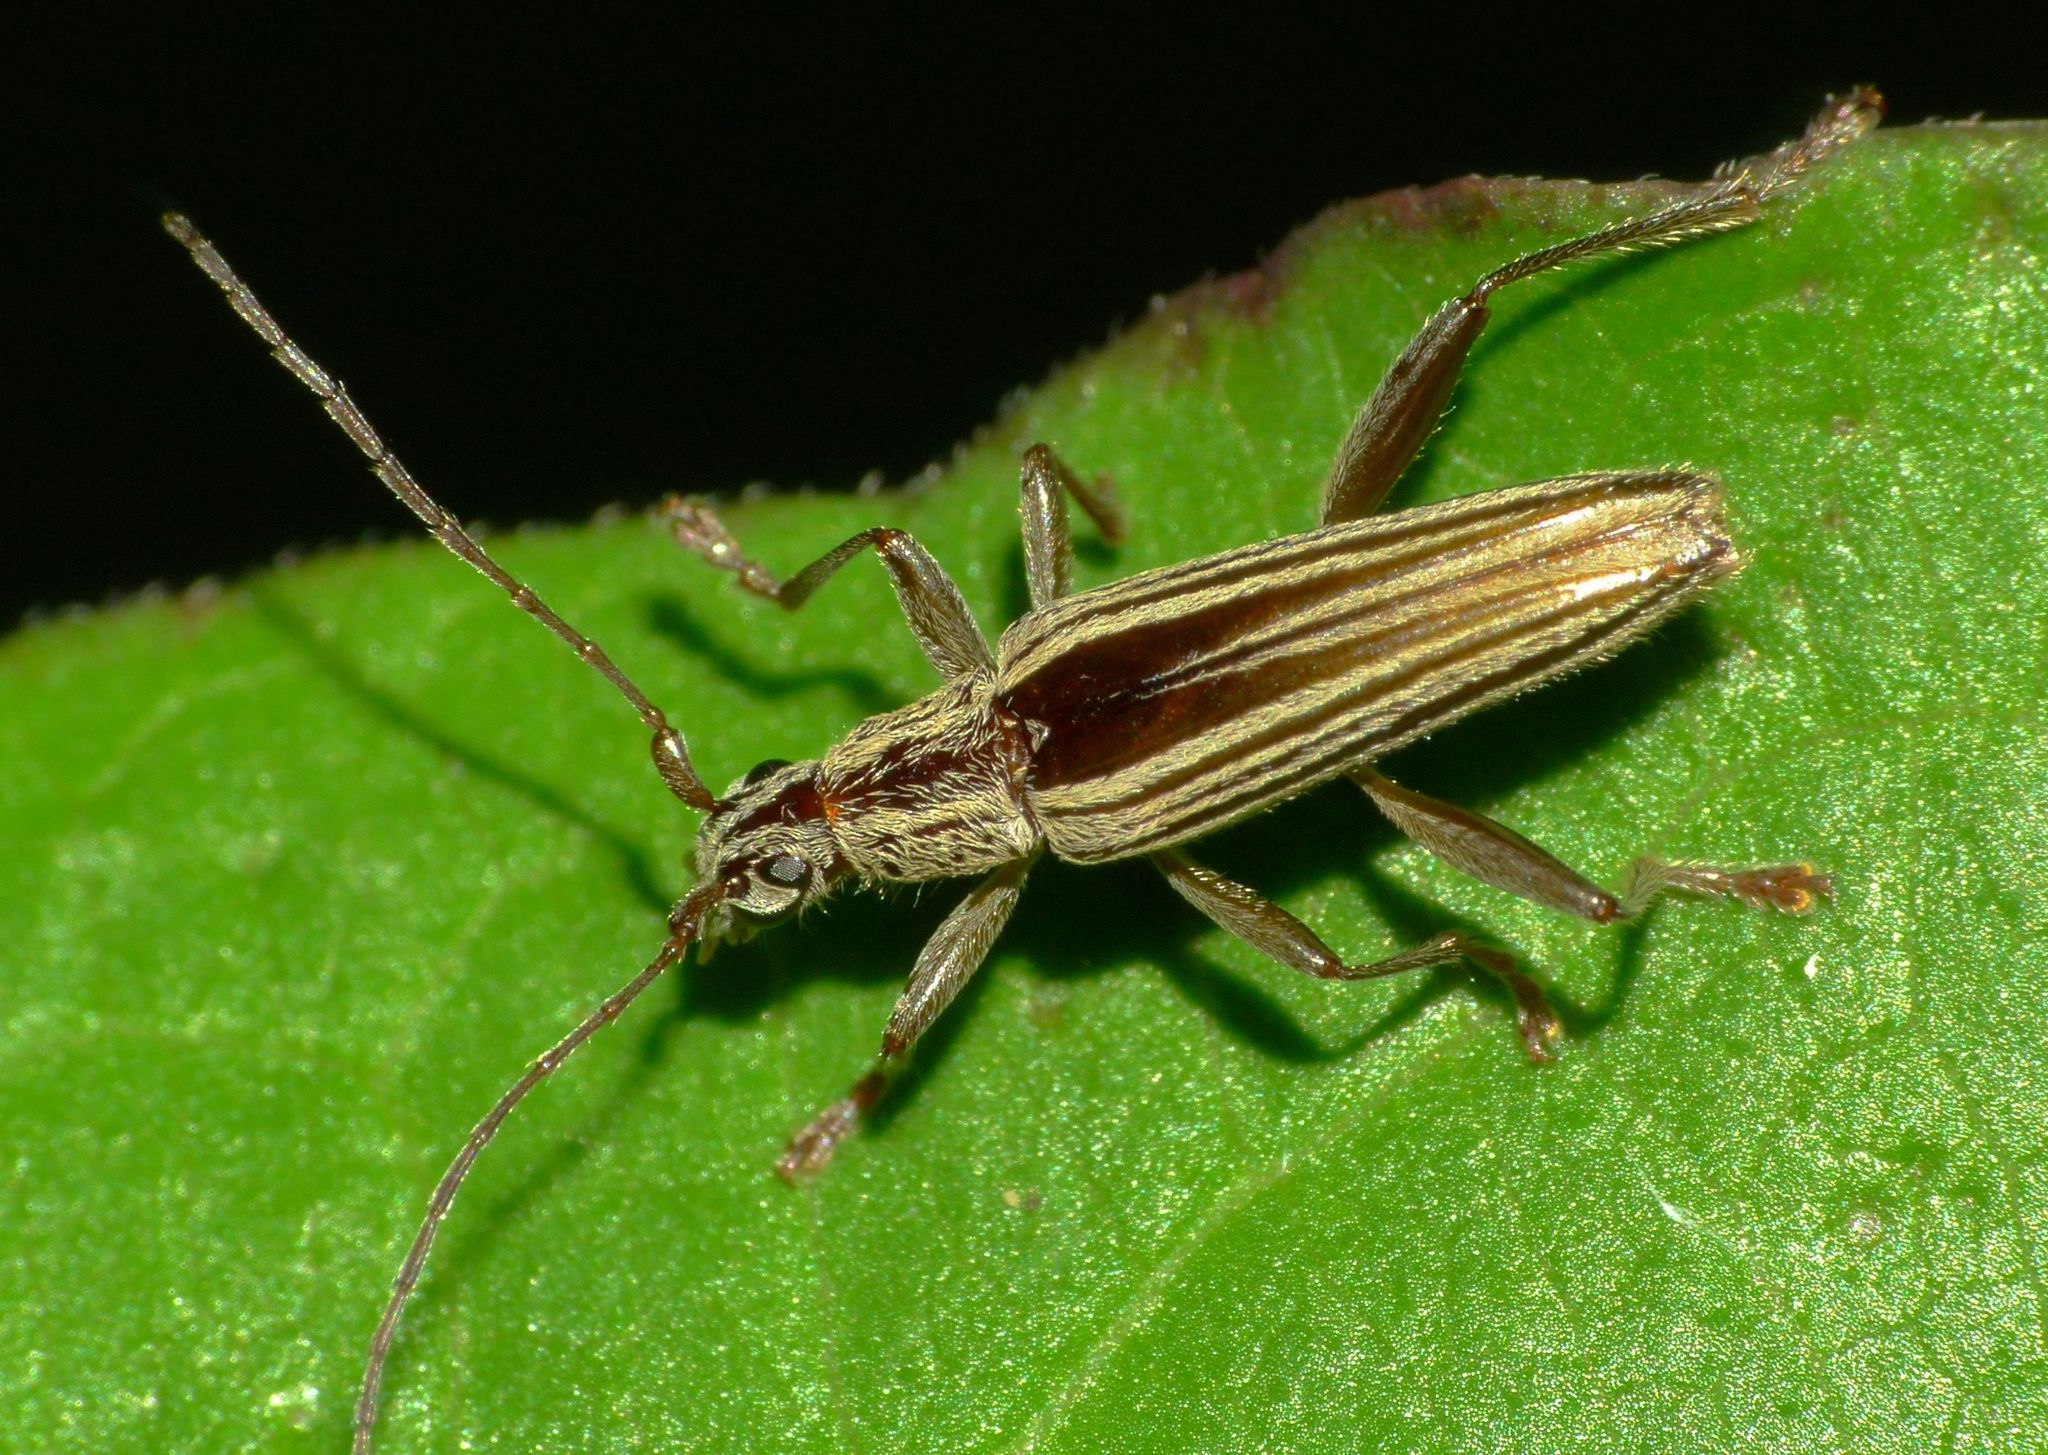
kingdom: Animalia
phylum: Arthropoda
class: Insecta
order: Coleoptera
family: Cerambycidae
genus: Coptomma
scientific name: Coptomma sulcatum
